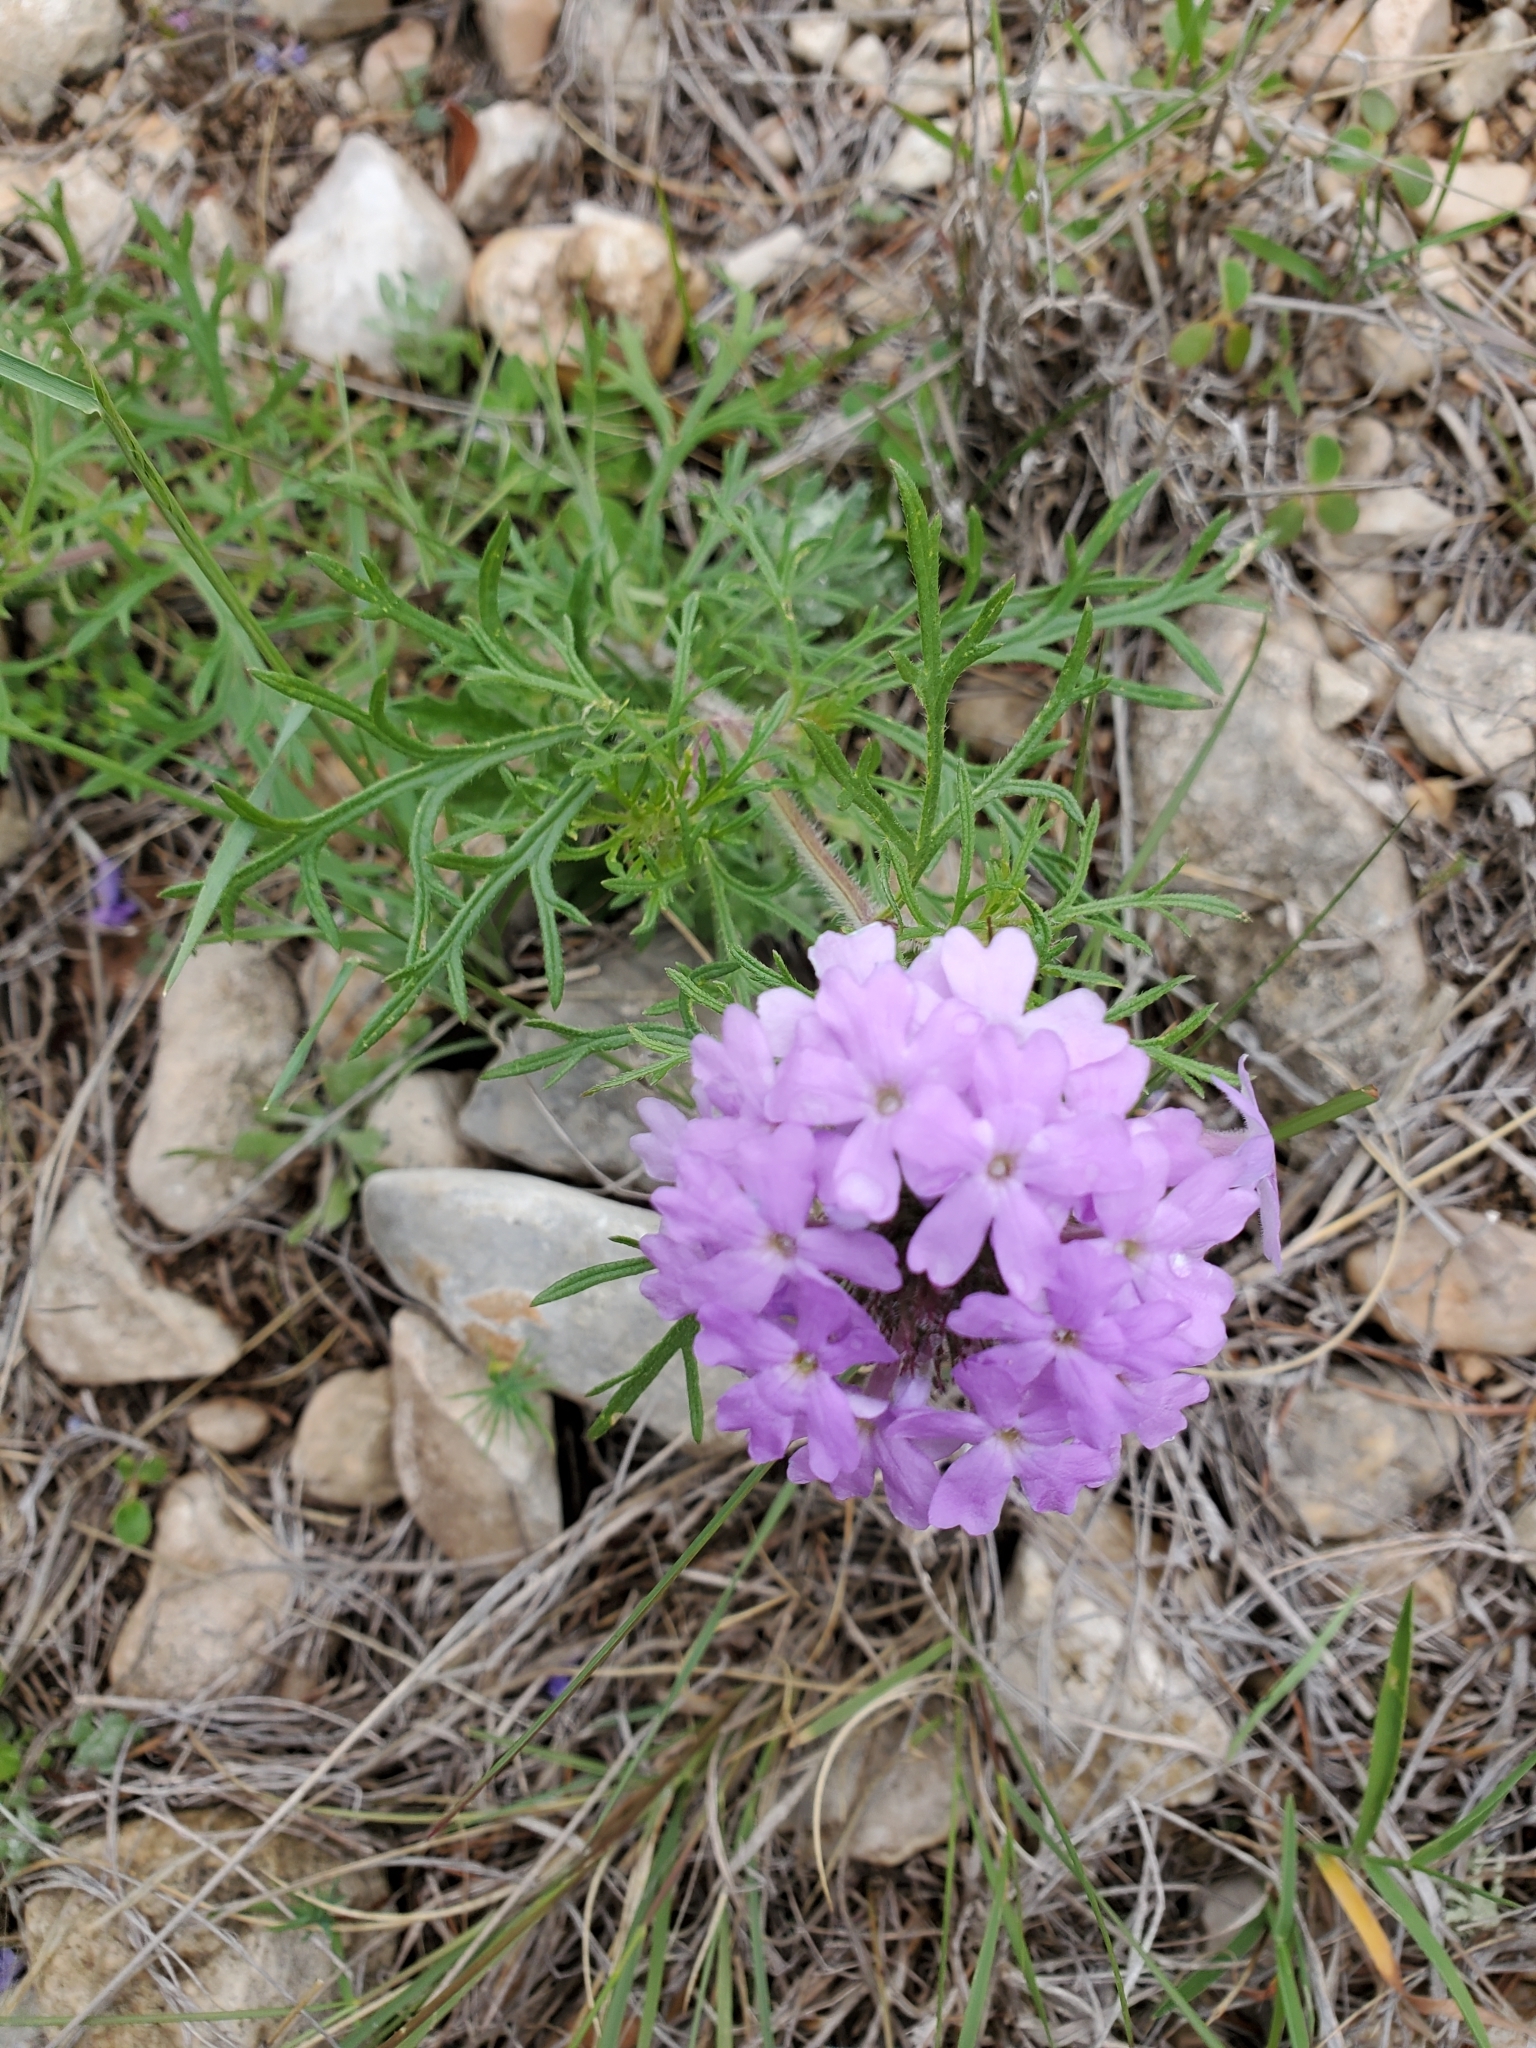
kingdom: Plantae
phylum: Tracheophyta
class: Magnoliopsida
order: Lamiales
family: Verbenaceae
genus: Verbena
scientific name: Verbena bipinnatifida
